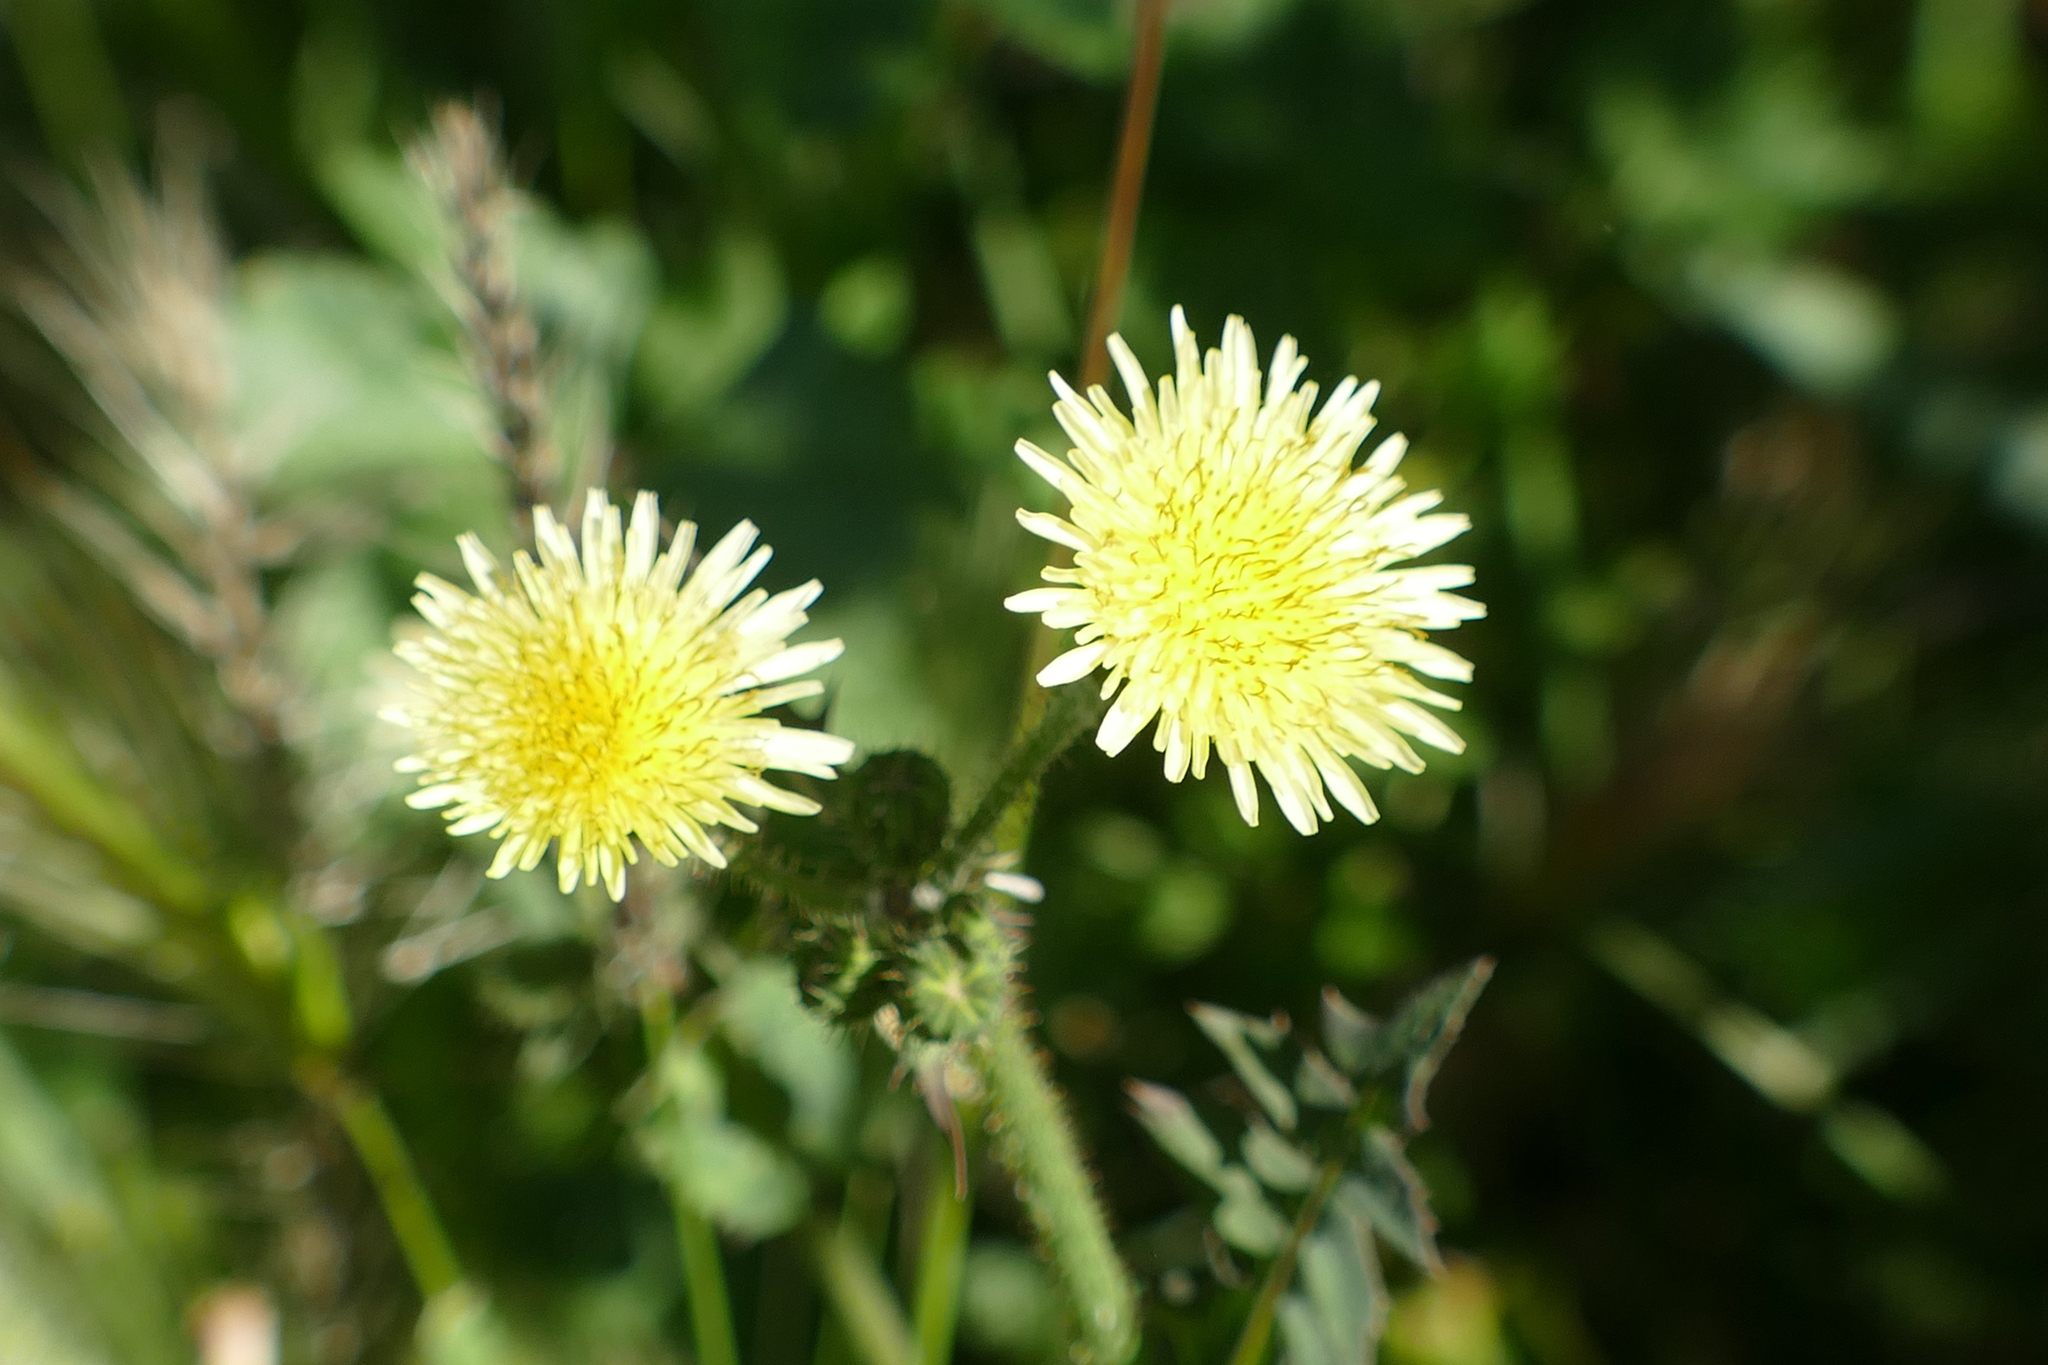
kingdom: Plantae
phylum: Tracheophyta
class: Magnoliopsida
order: Asterales
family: Asteraceae
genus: Sonchus
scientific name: Sonchus oleraceus
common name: Common sowthistle
